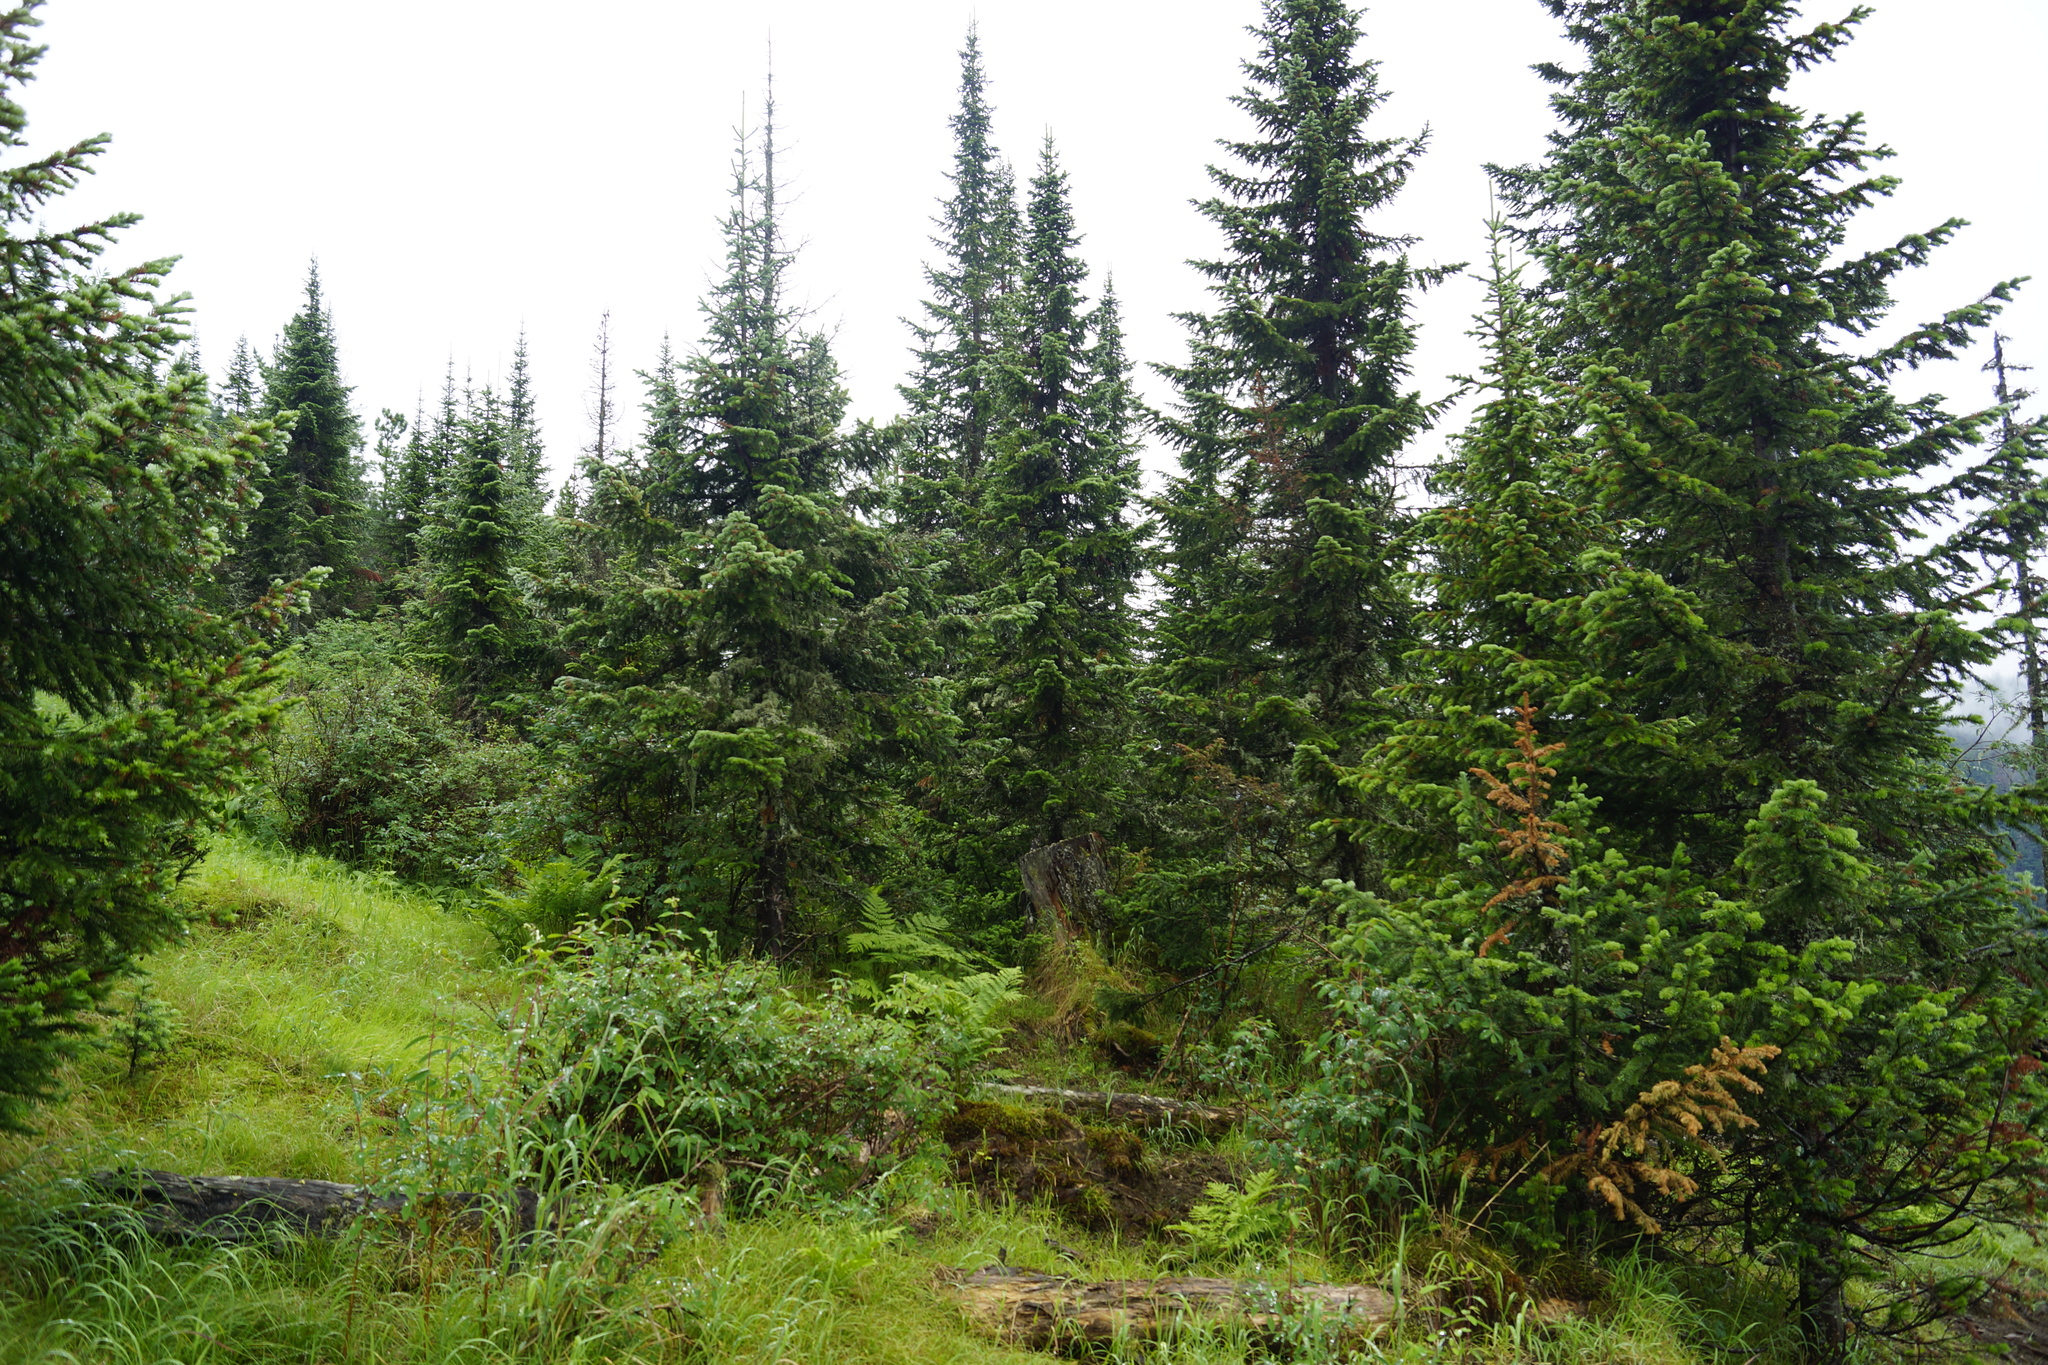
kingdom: Plantae
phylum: Tracheophyta
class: Pinopsida
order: Pinales
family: Pinaceae
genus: Abies
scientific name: Abies sibirica
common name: Siberian fir
